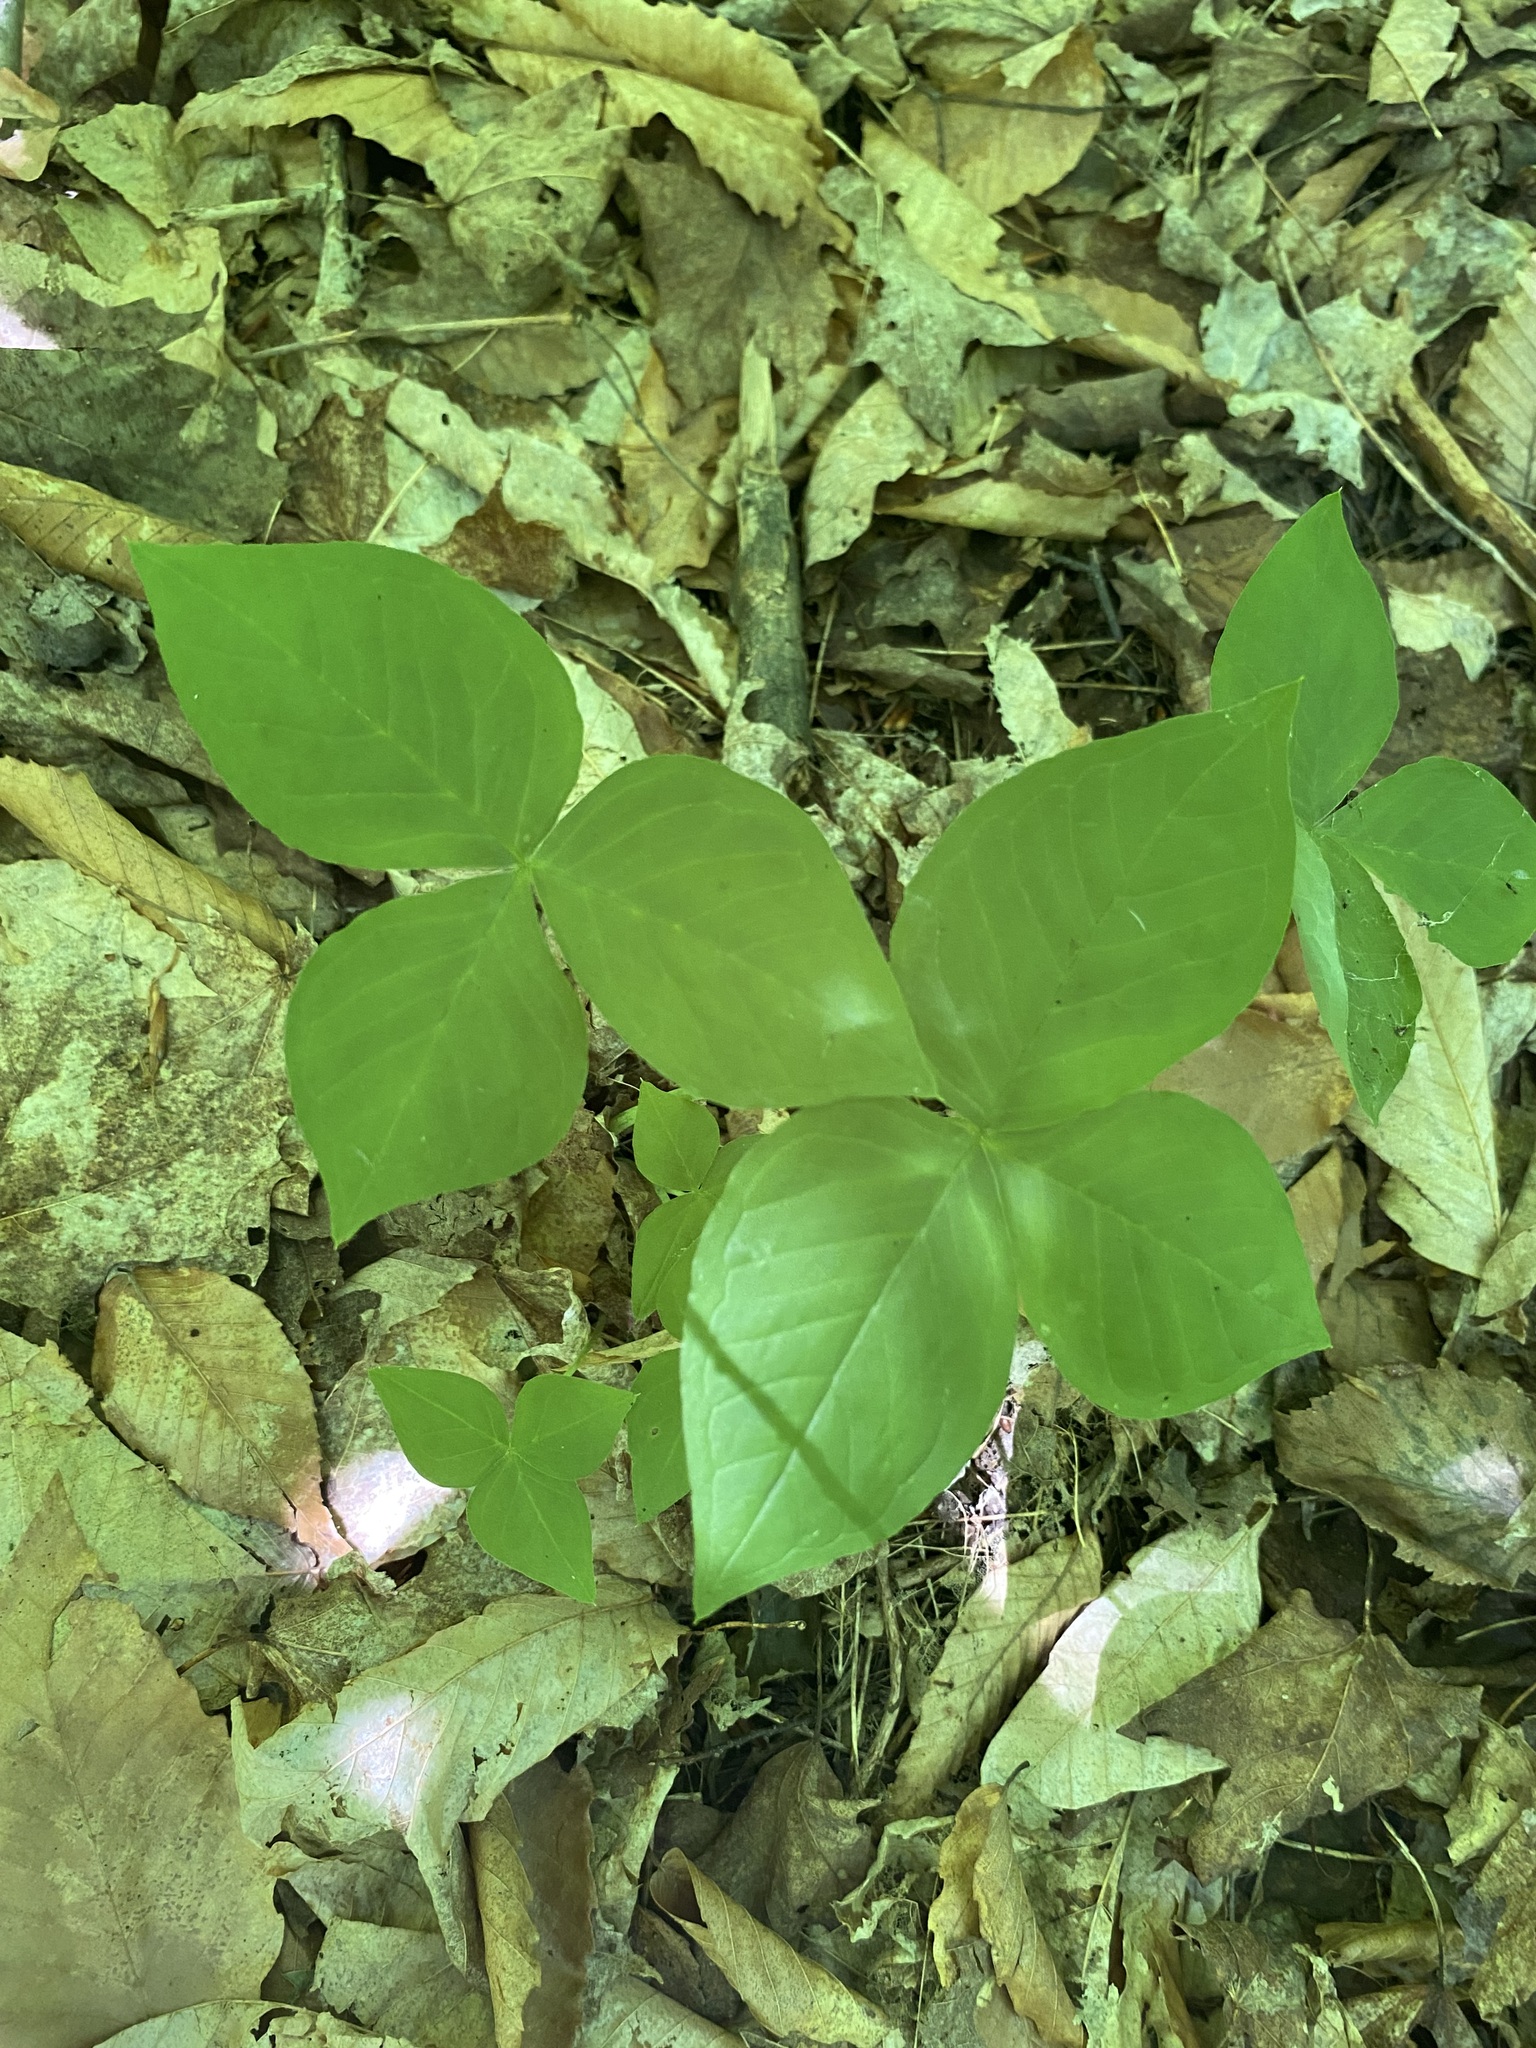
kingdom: Plantae
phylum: Tracheophyta
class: Liliopsida
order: Alismatales
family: Araceae
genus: Arisaema
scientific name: Arisaema triphyllum
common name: Jack-in-the-pulpit
